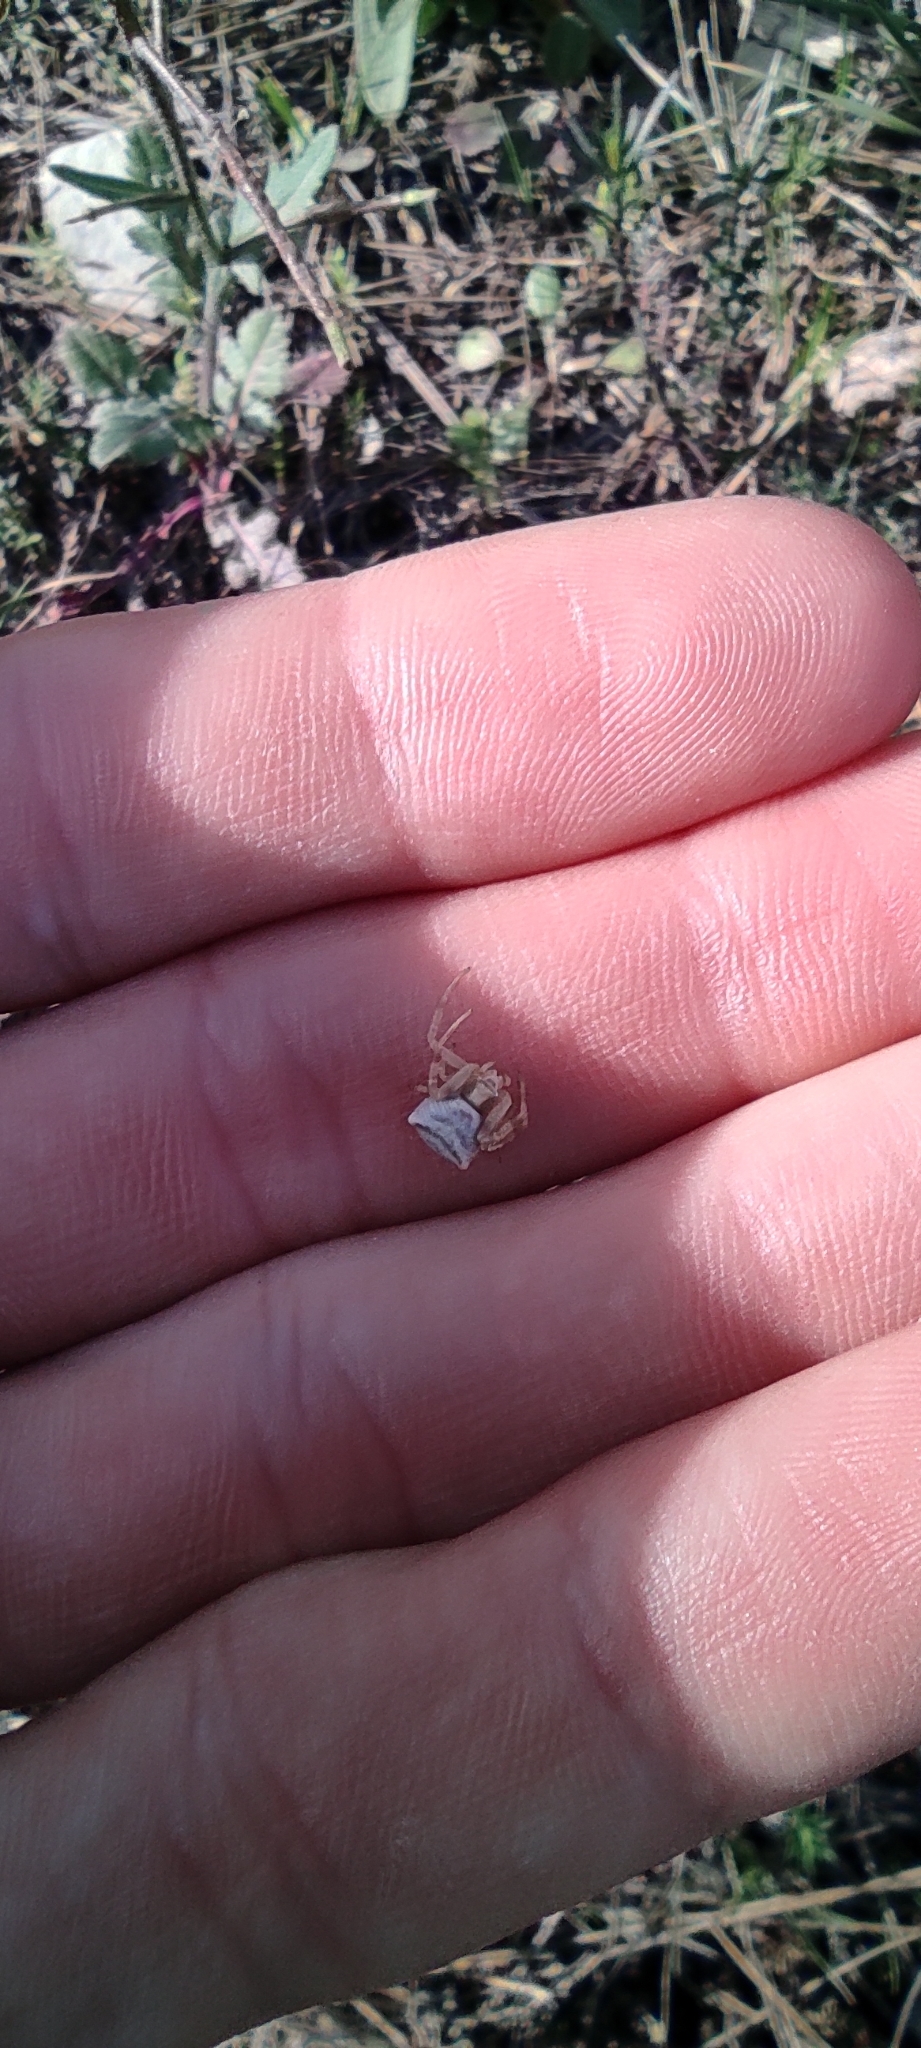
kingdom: Animalia
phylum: Arthropoda
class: Arachnida
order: Araneae
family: Thomisidae
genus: Thomisus
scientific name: Thomisus onustus
